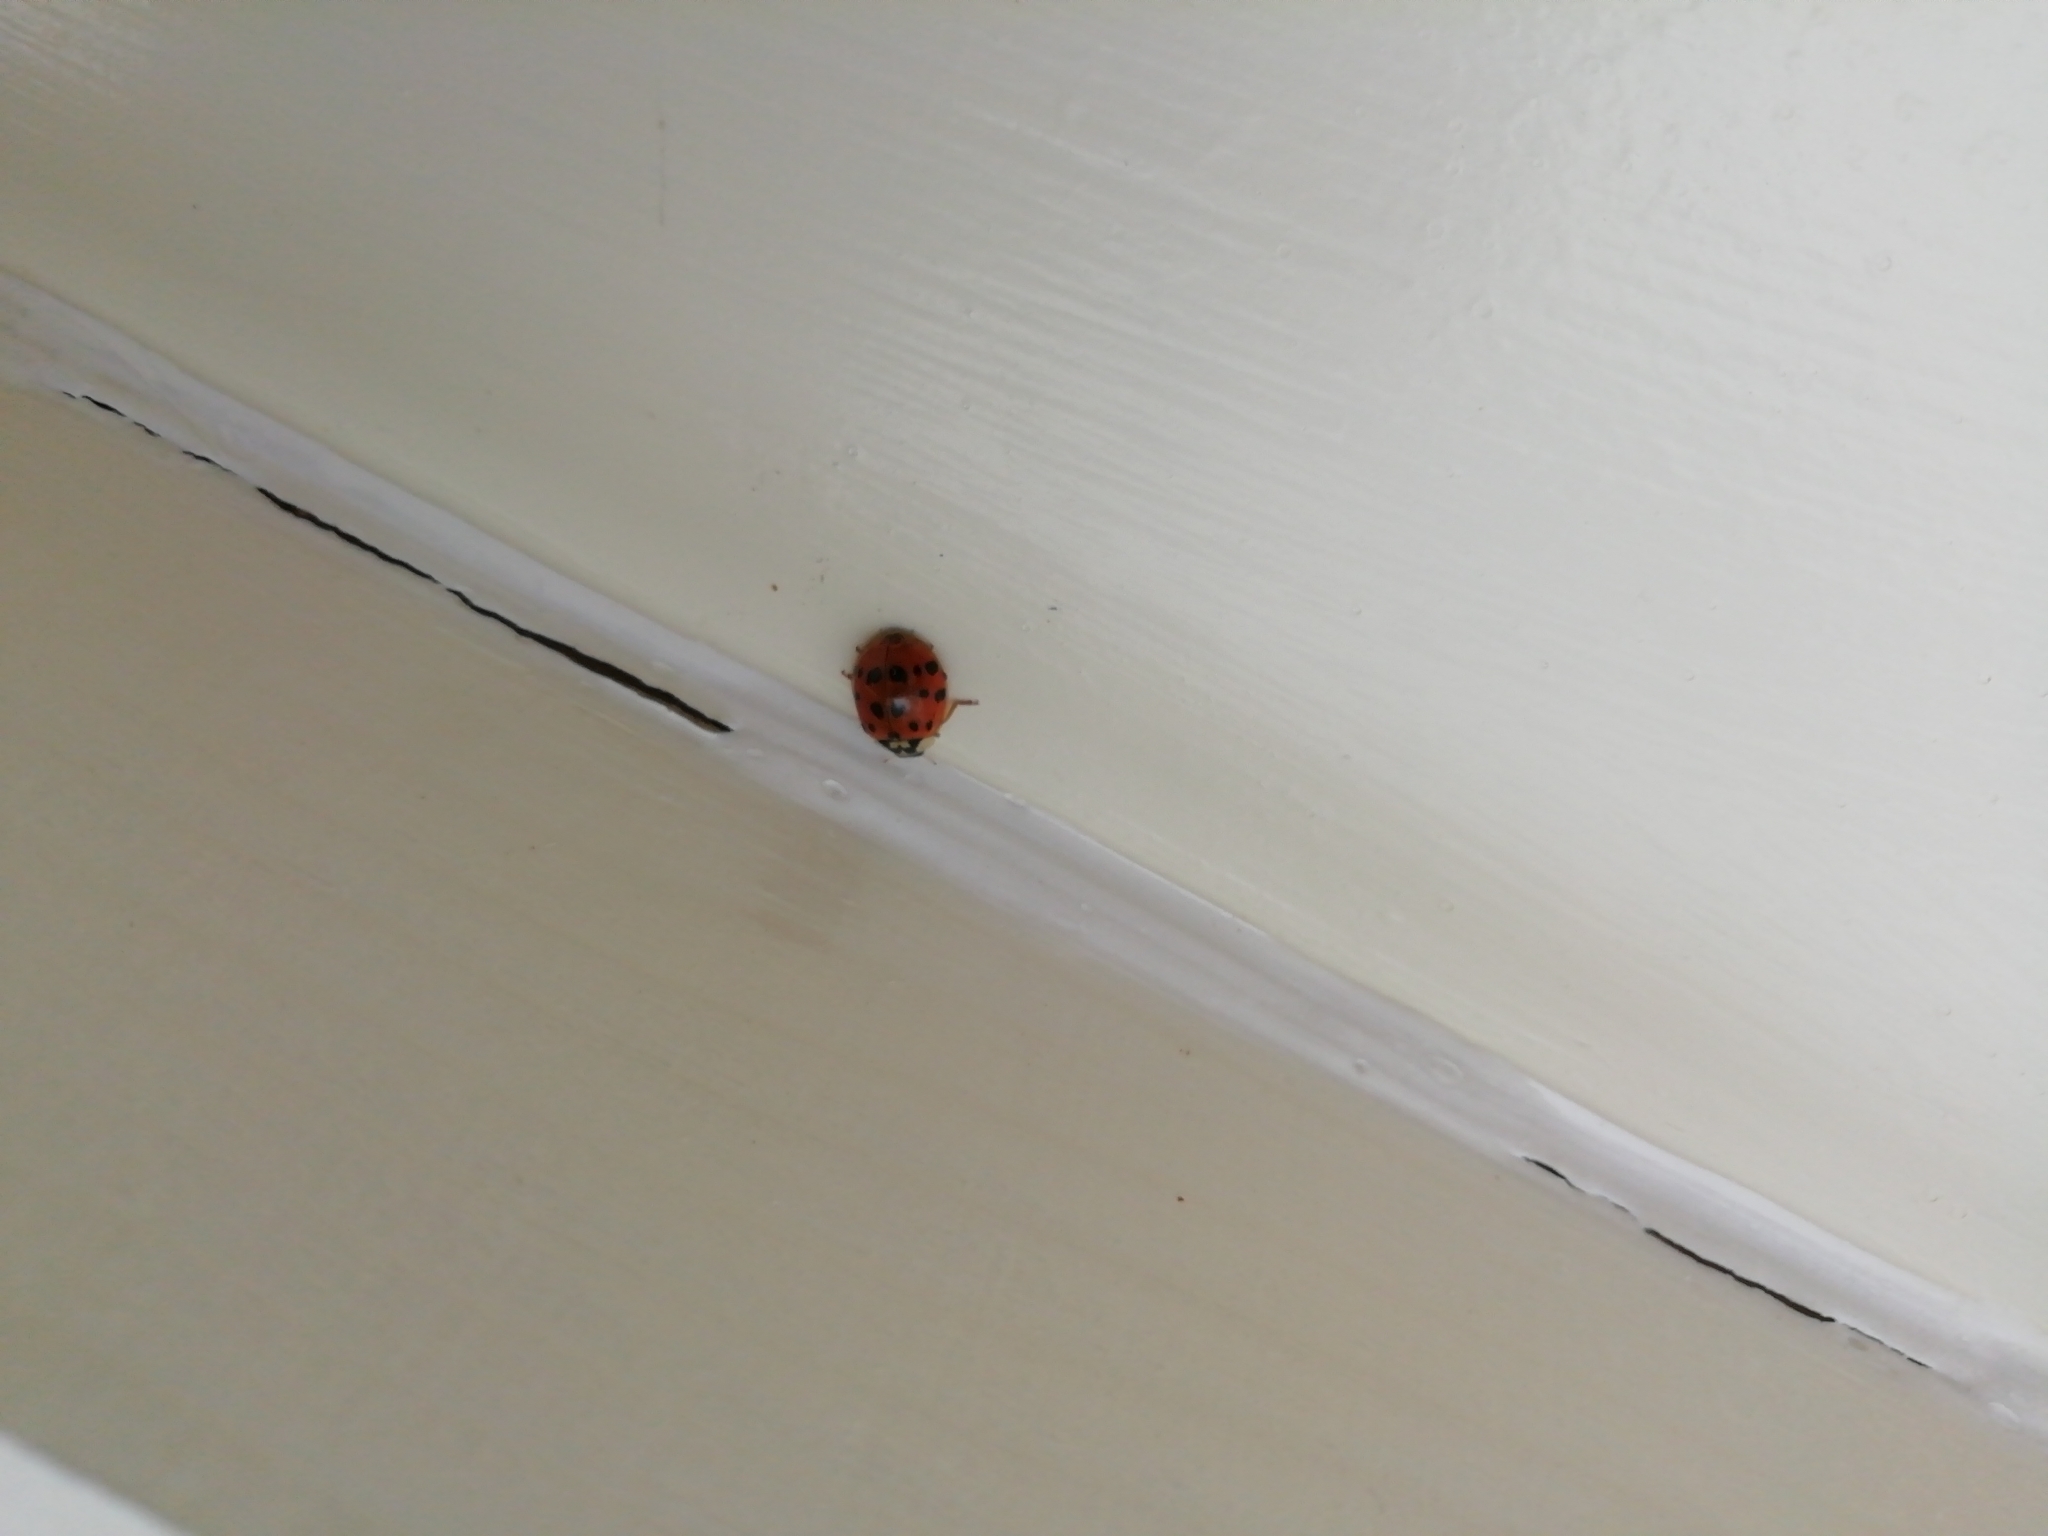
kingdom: Animalia
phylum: Arthropoda
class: Insecta
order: Coleoptera
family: Coccinellidae
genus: Harmonia
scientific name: Harmonia axyridis
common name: Harlequin ladybird
